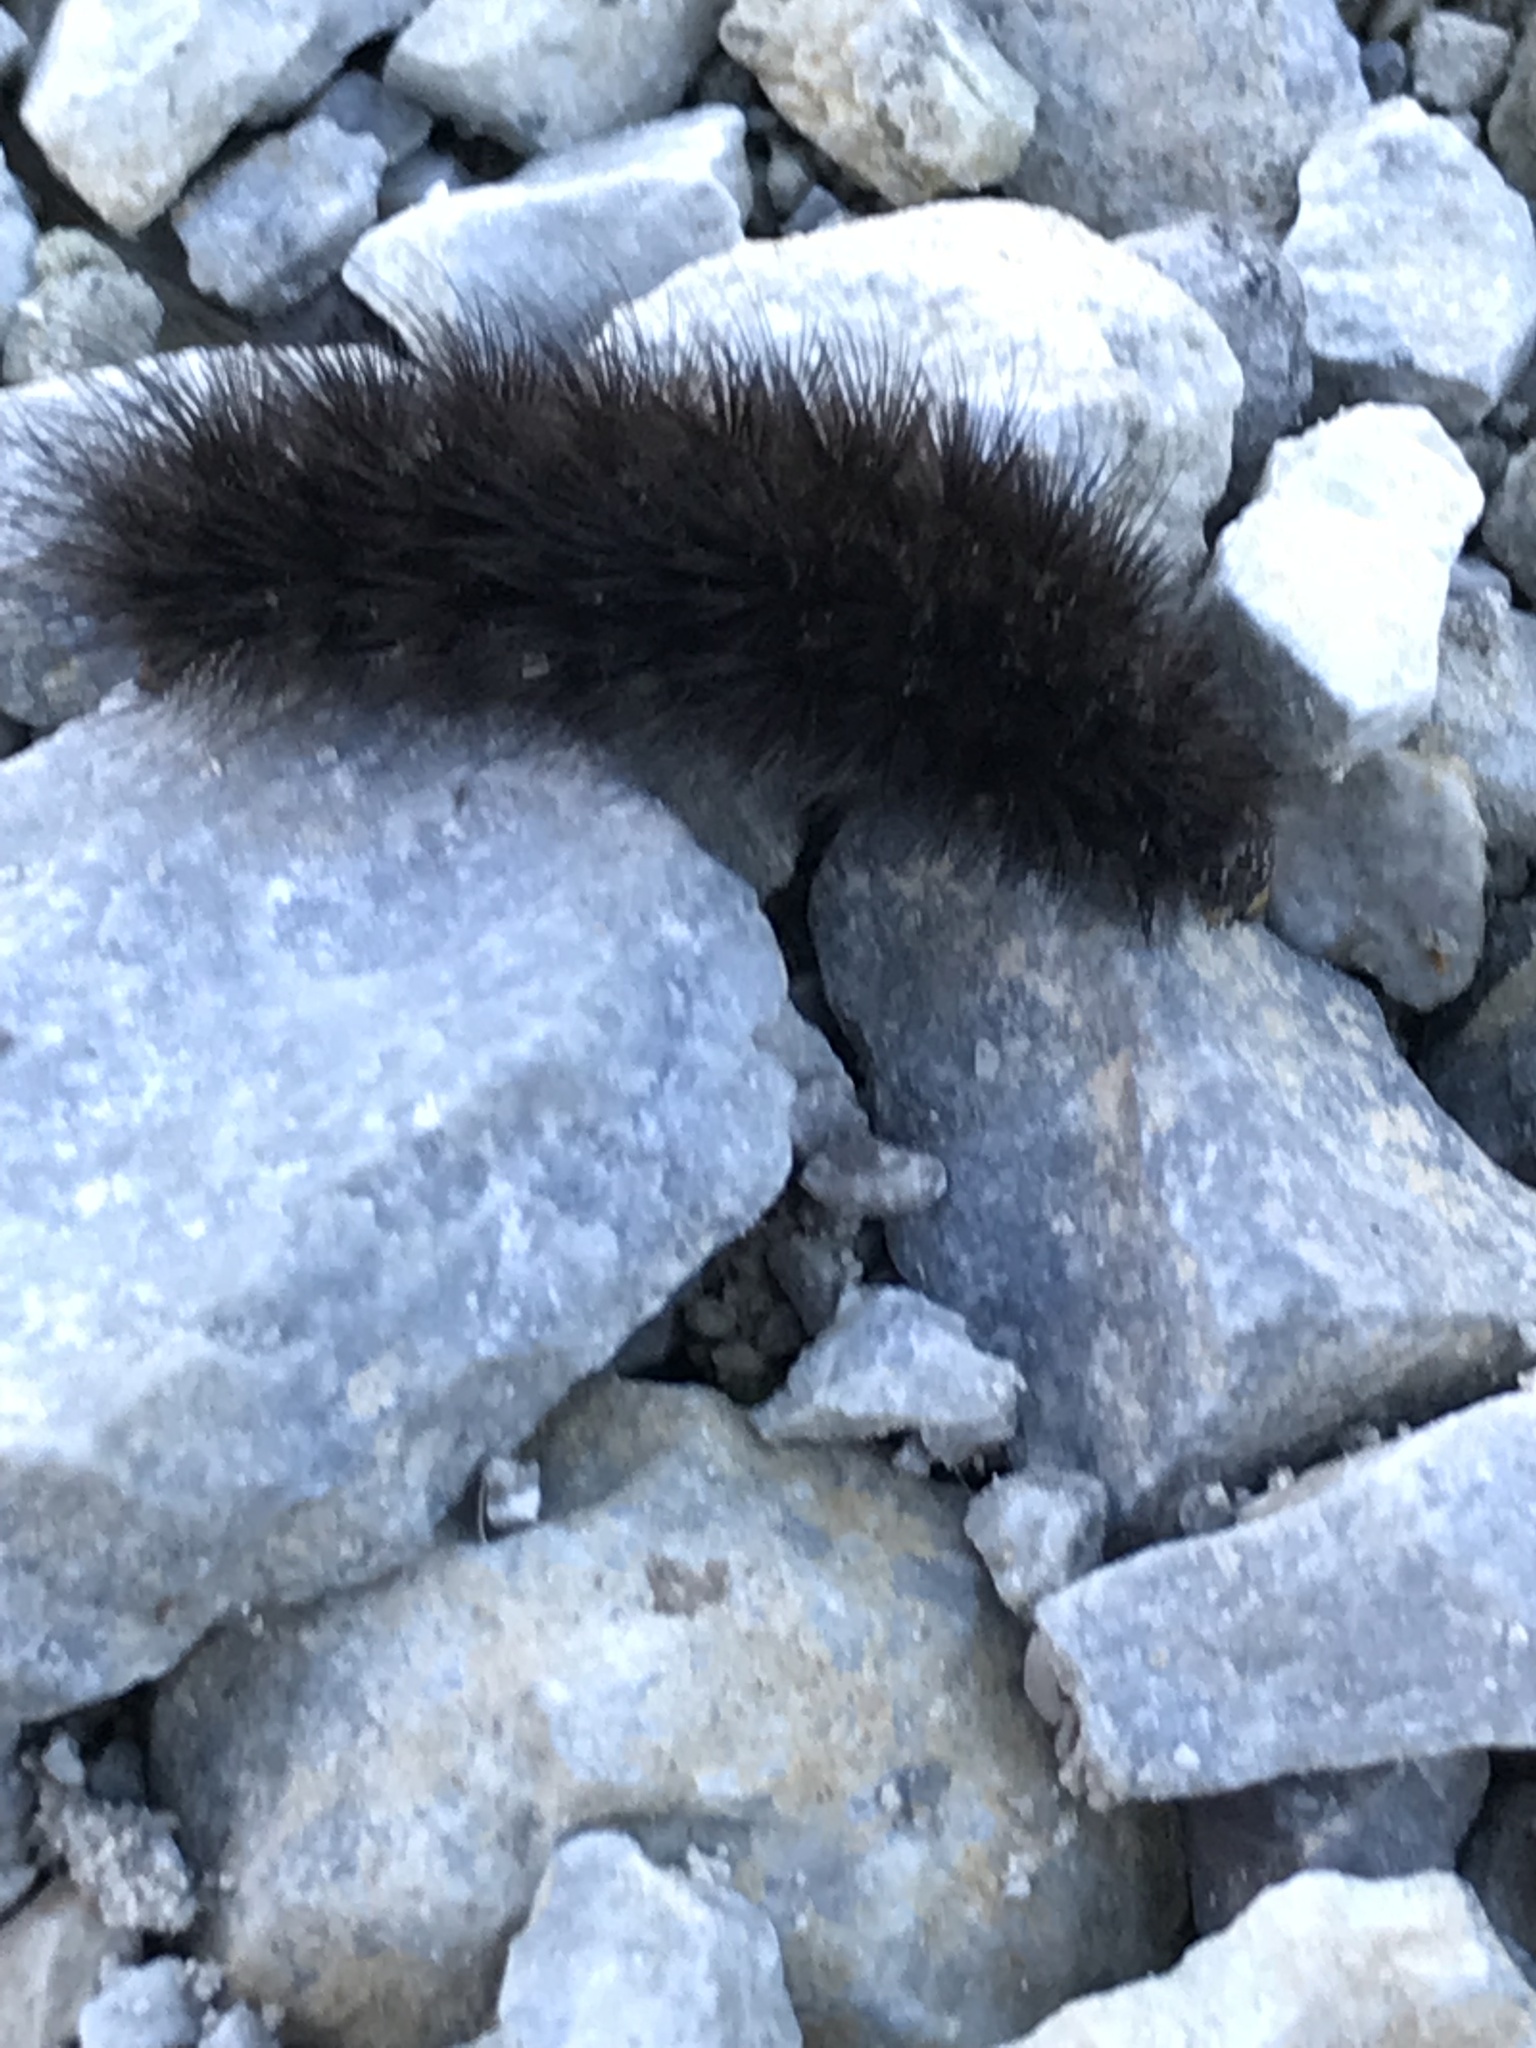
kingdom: Animalia
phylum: Arthropoda
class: Insecta
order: Lepidoptera
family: Erebidae
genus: Phragmatobia
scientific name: Phragmatobia fuliginosa
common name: Ruby tiger
